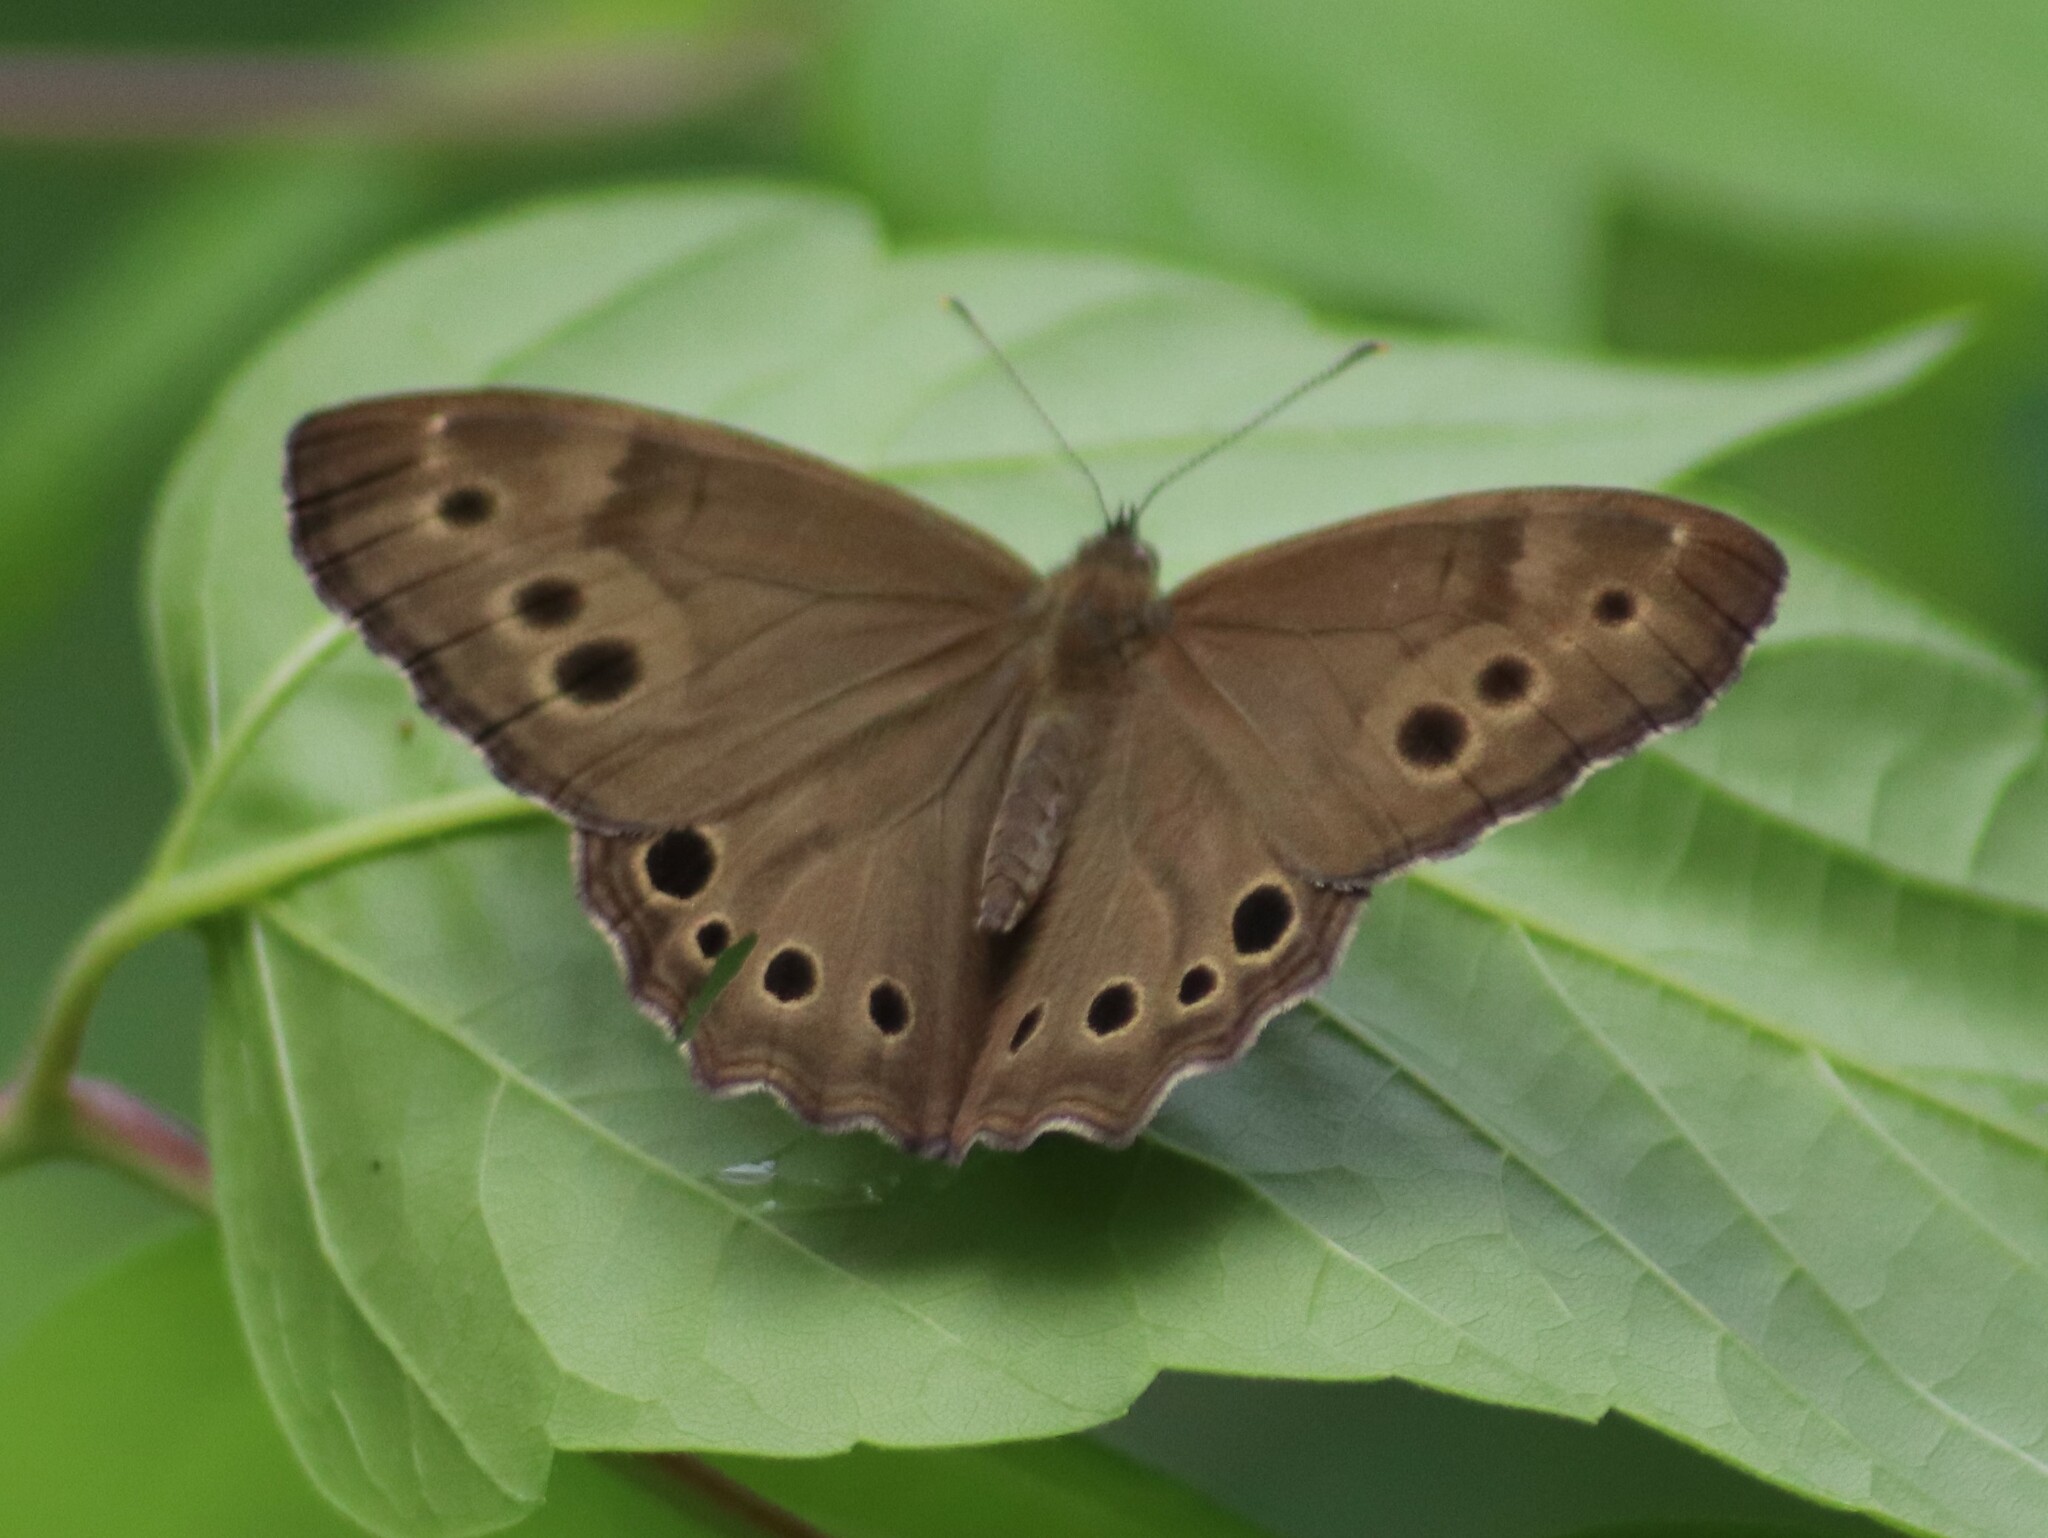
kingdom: Animalia
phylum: Arthropoda
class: Insecta
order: Lepidoptera
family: Nymphalidae
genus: Lethe
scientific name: Lethe anthedon
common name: Northern pearly-eye
